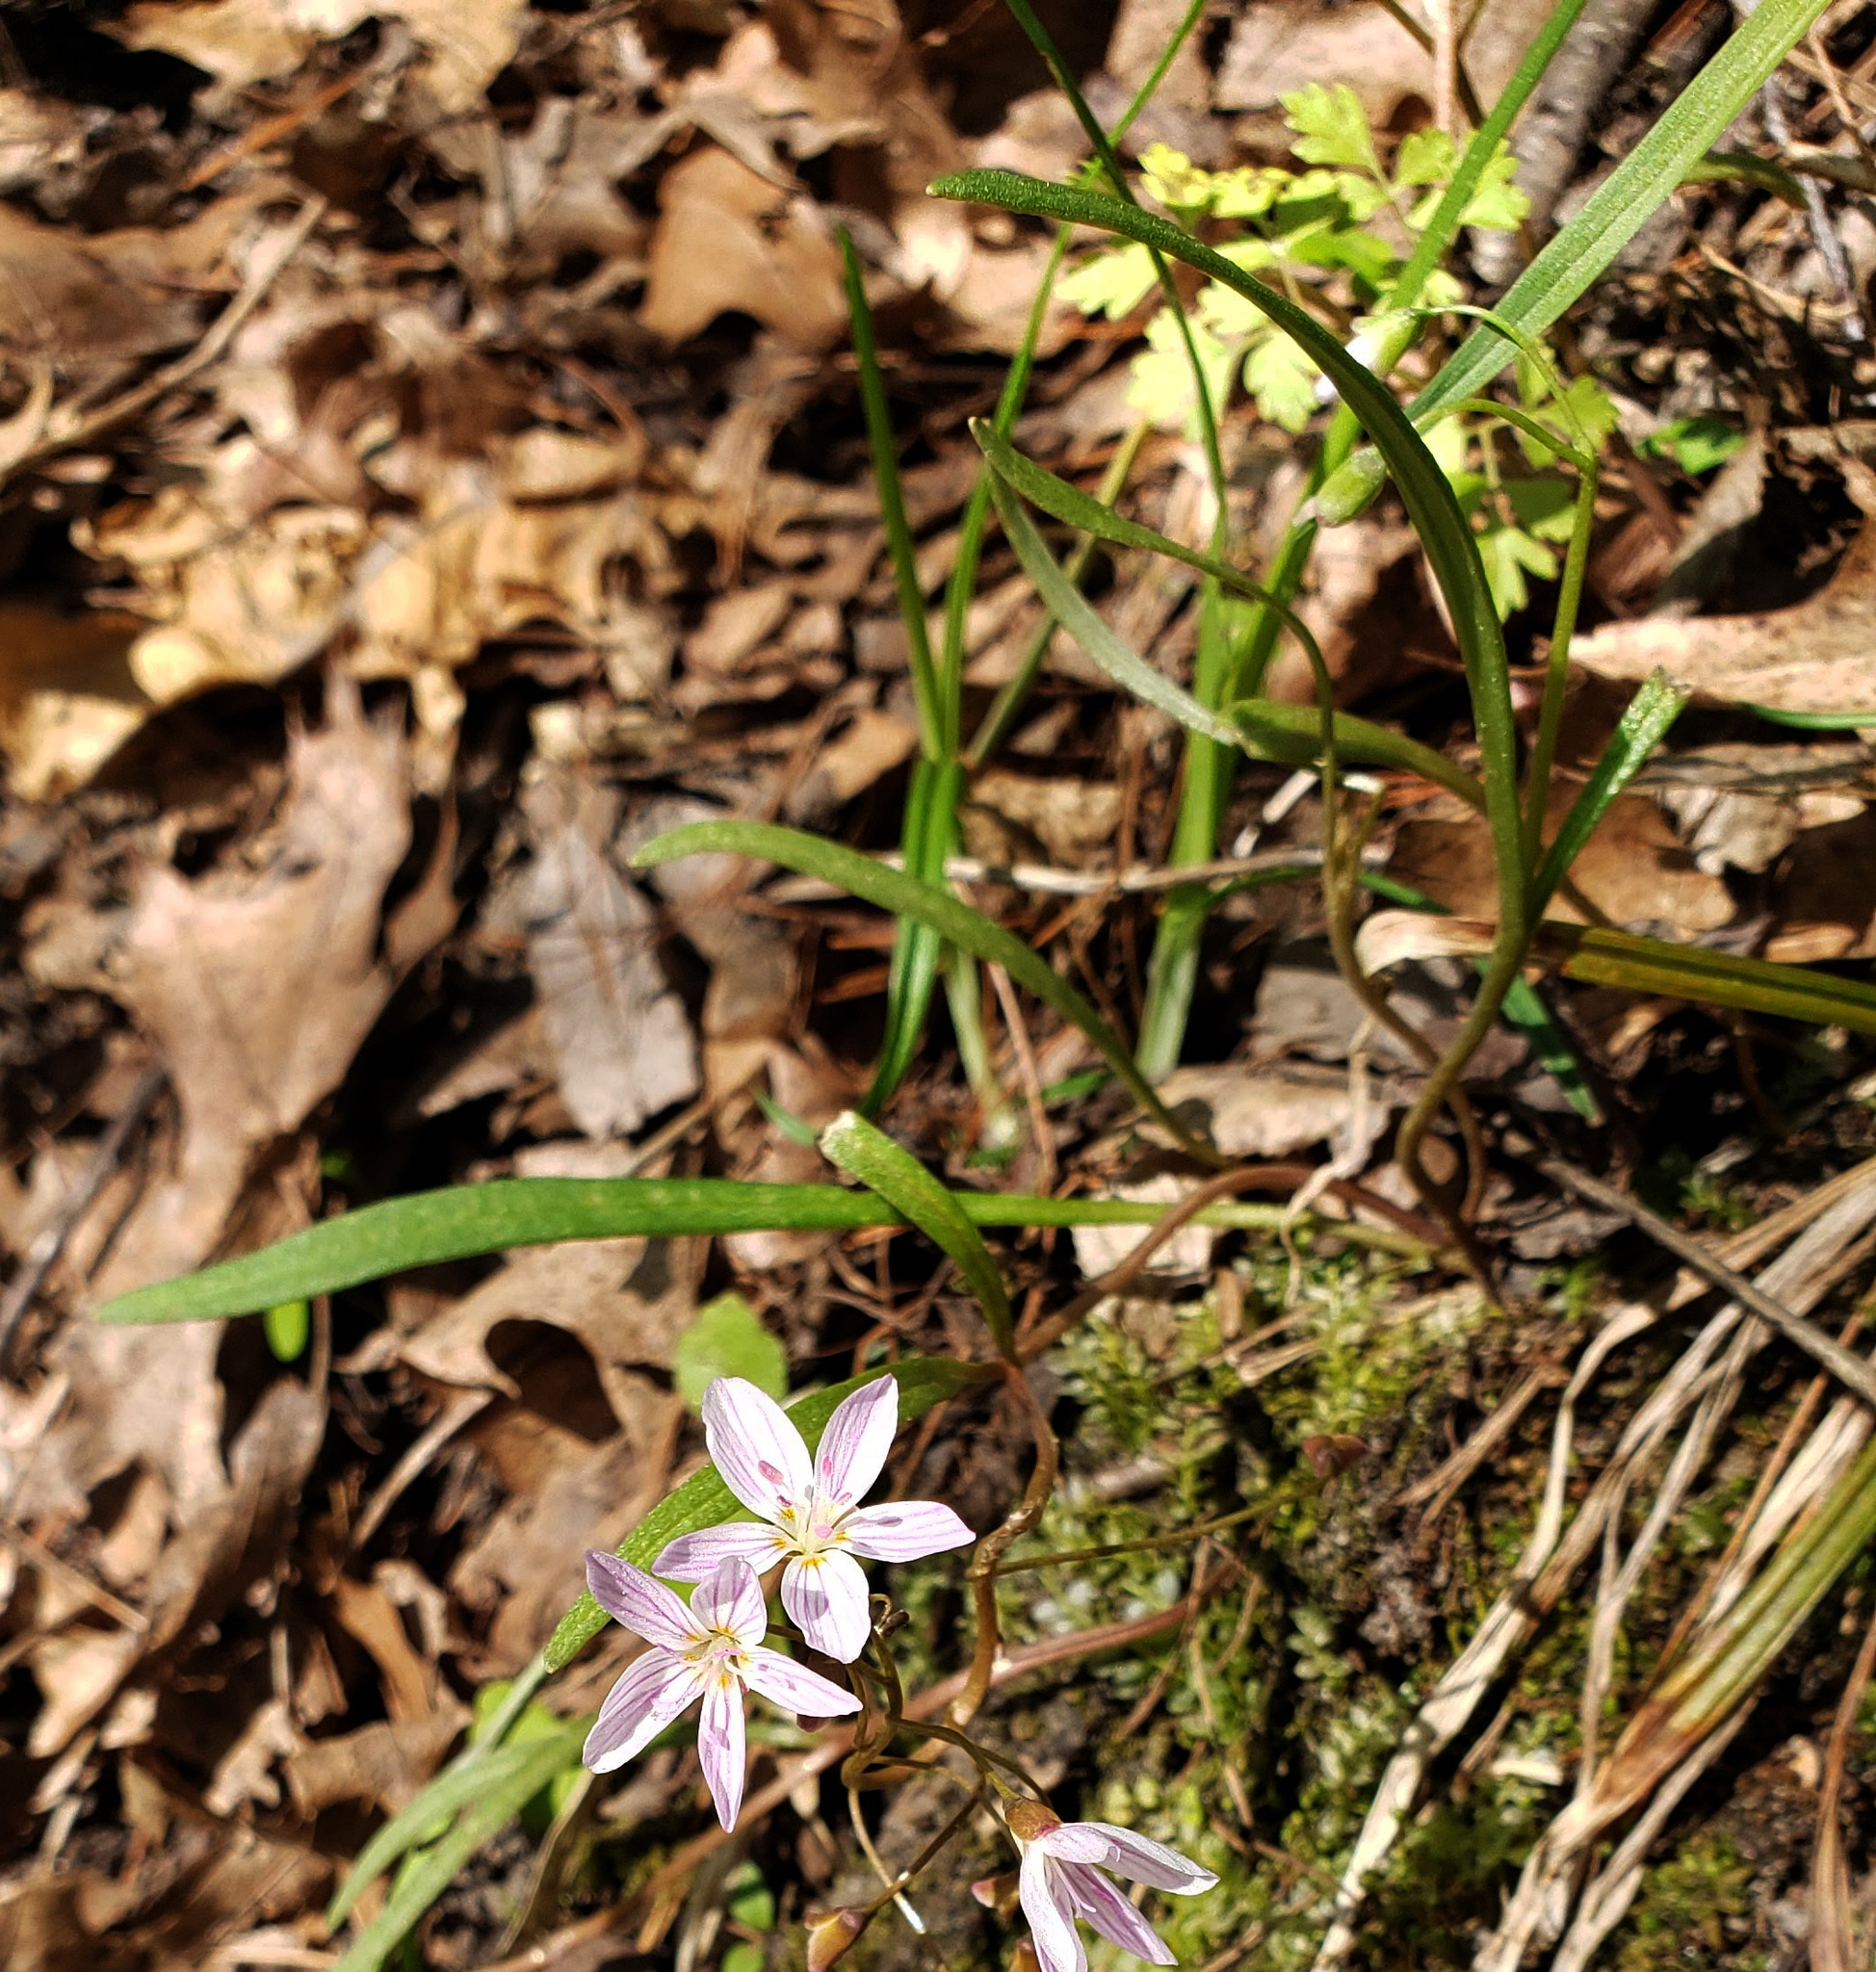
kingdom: Plantae
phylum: Tracheophyta
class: Magnoliopsida
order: Caryophyllales
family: Montiaceae
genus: Claytonia
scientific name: Claytonia virginica
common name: Virginia springbeauty
